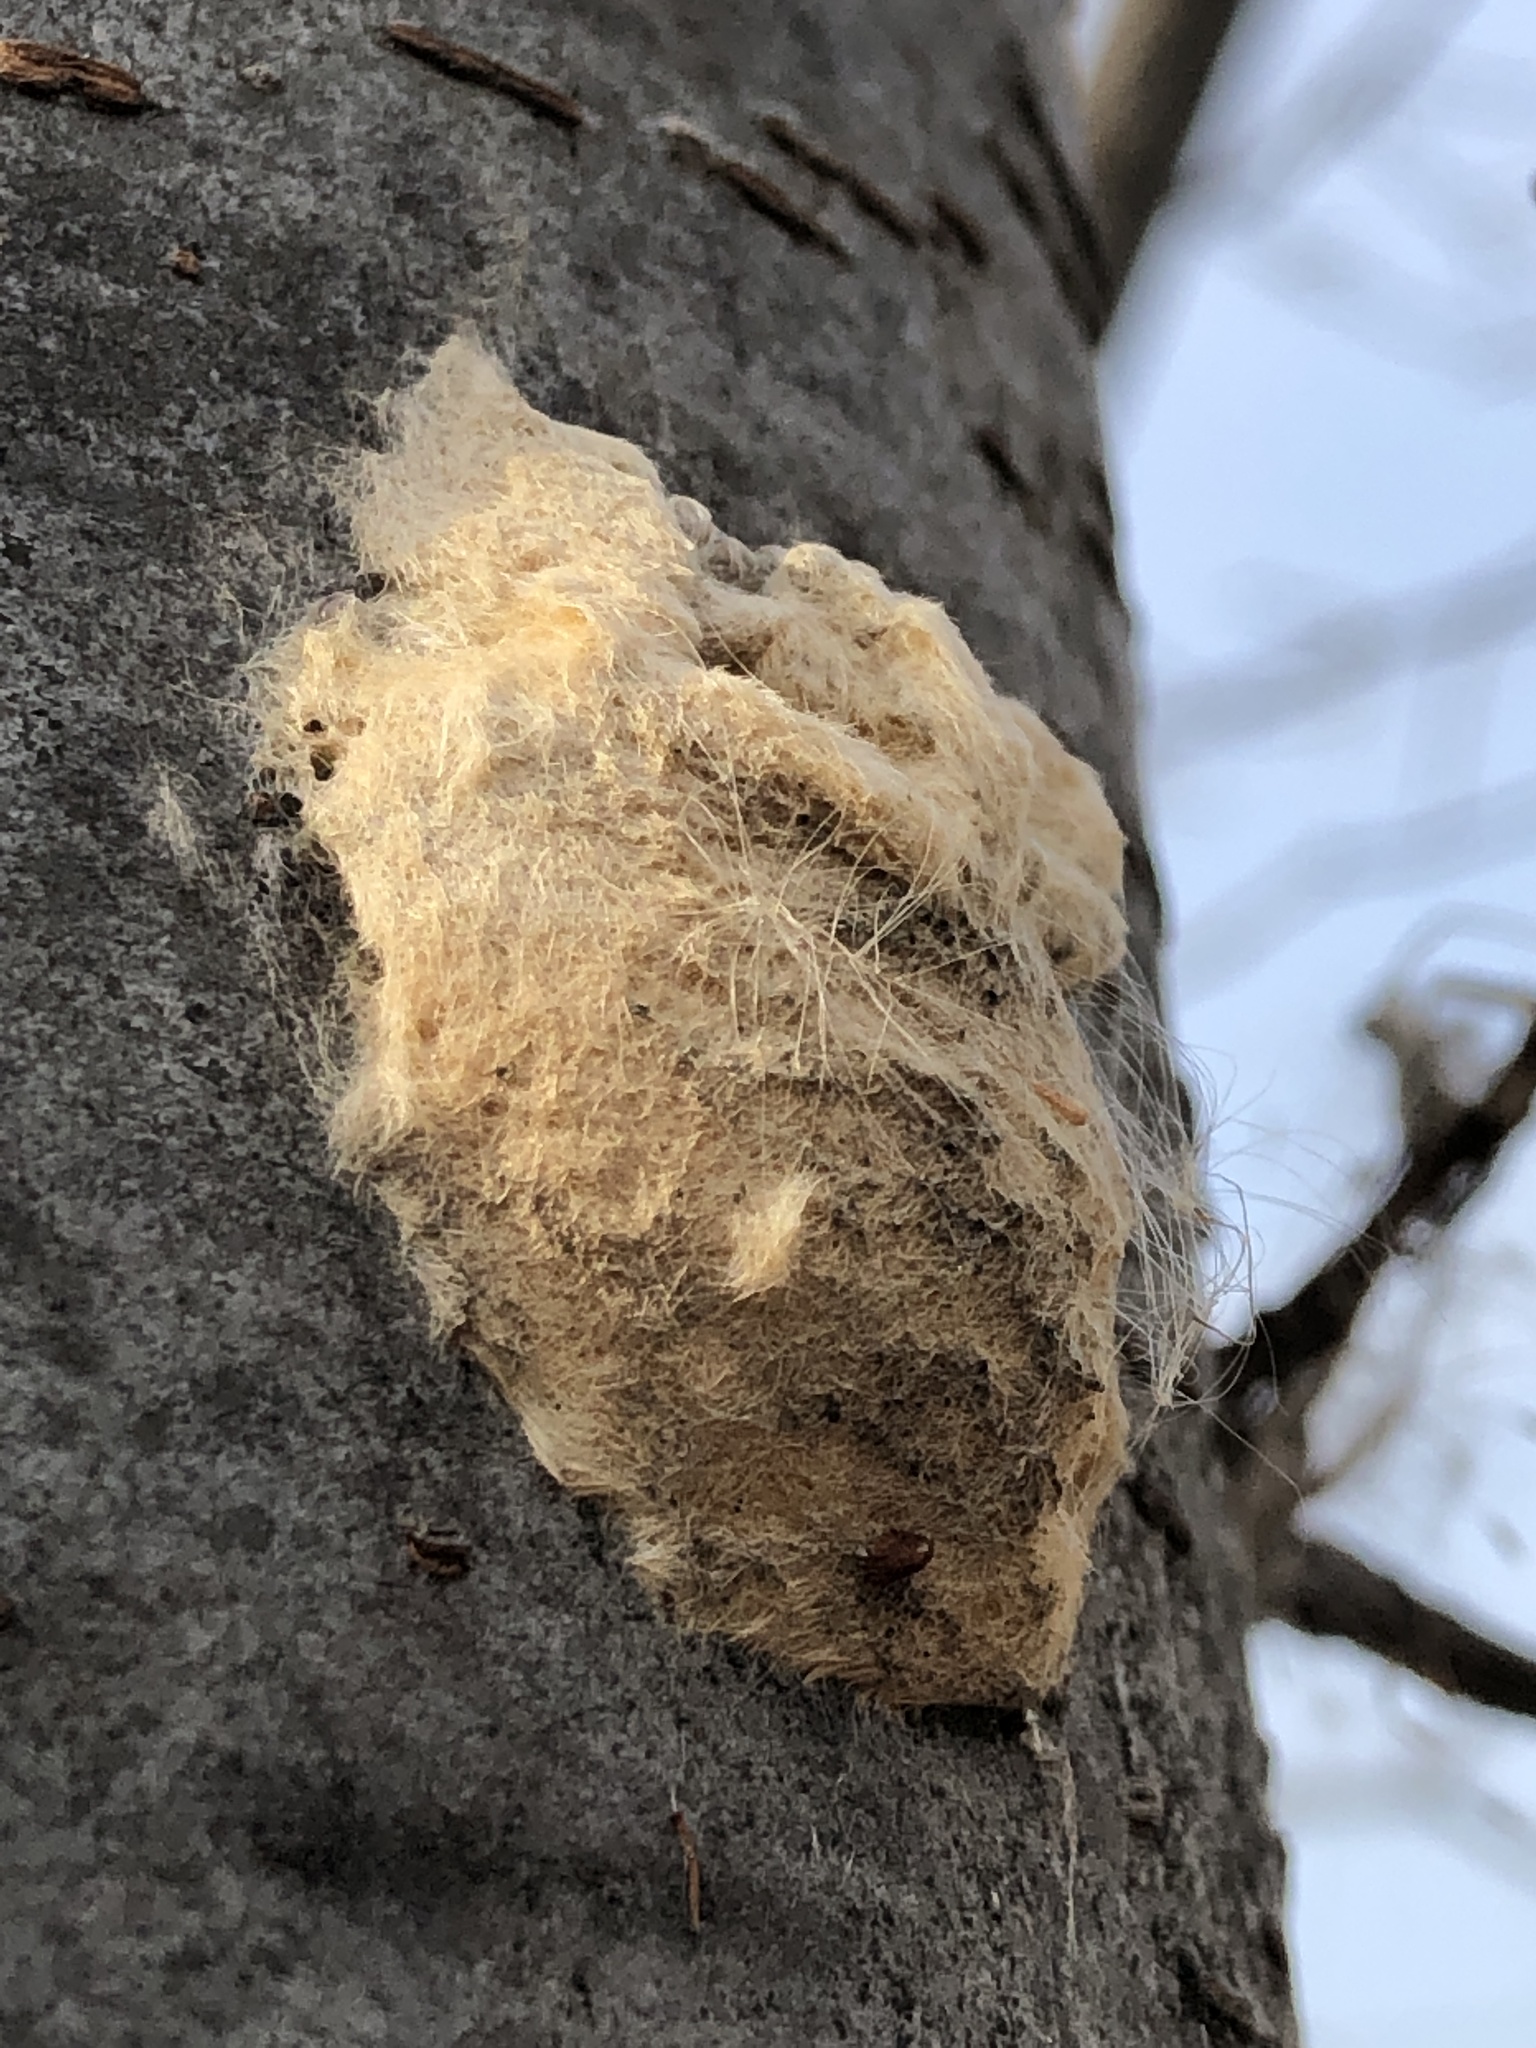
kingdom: Animalia
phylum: Arthropoda
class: Insecta
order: Lepidoptera
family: Erebidae
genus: Lymantria
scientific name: Lymantria dispar
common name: Gypsy moth
